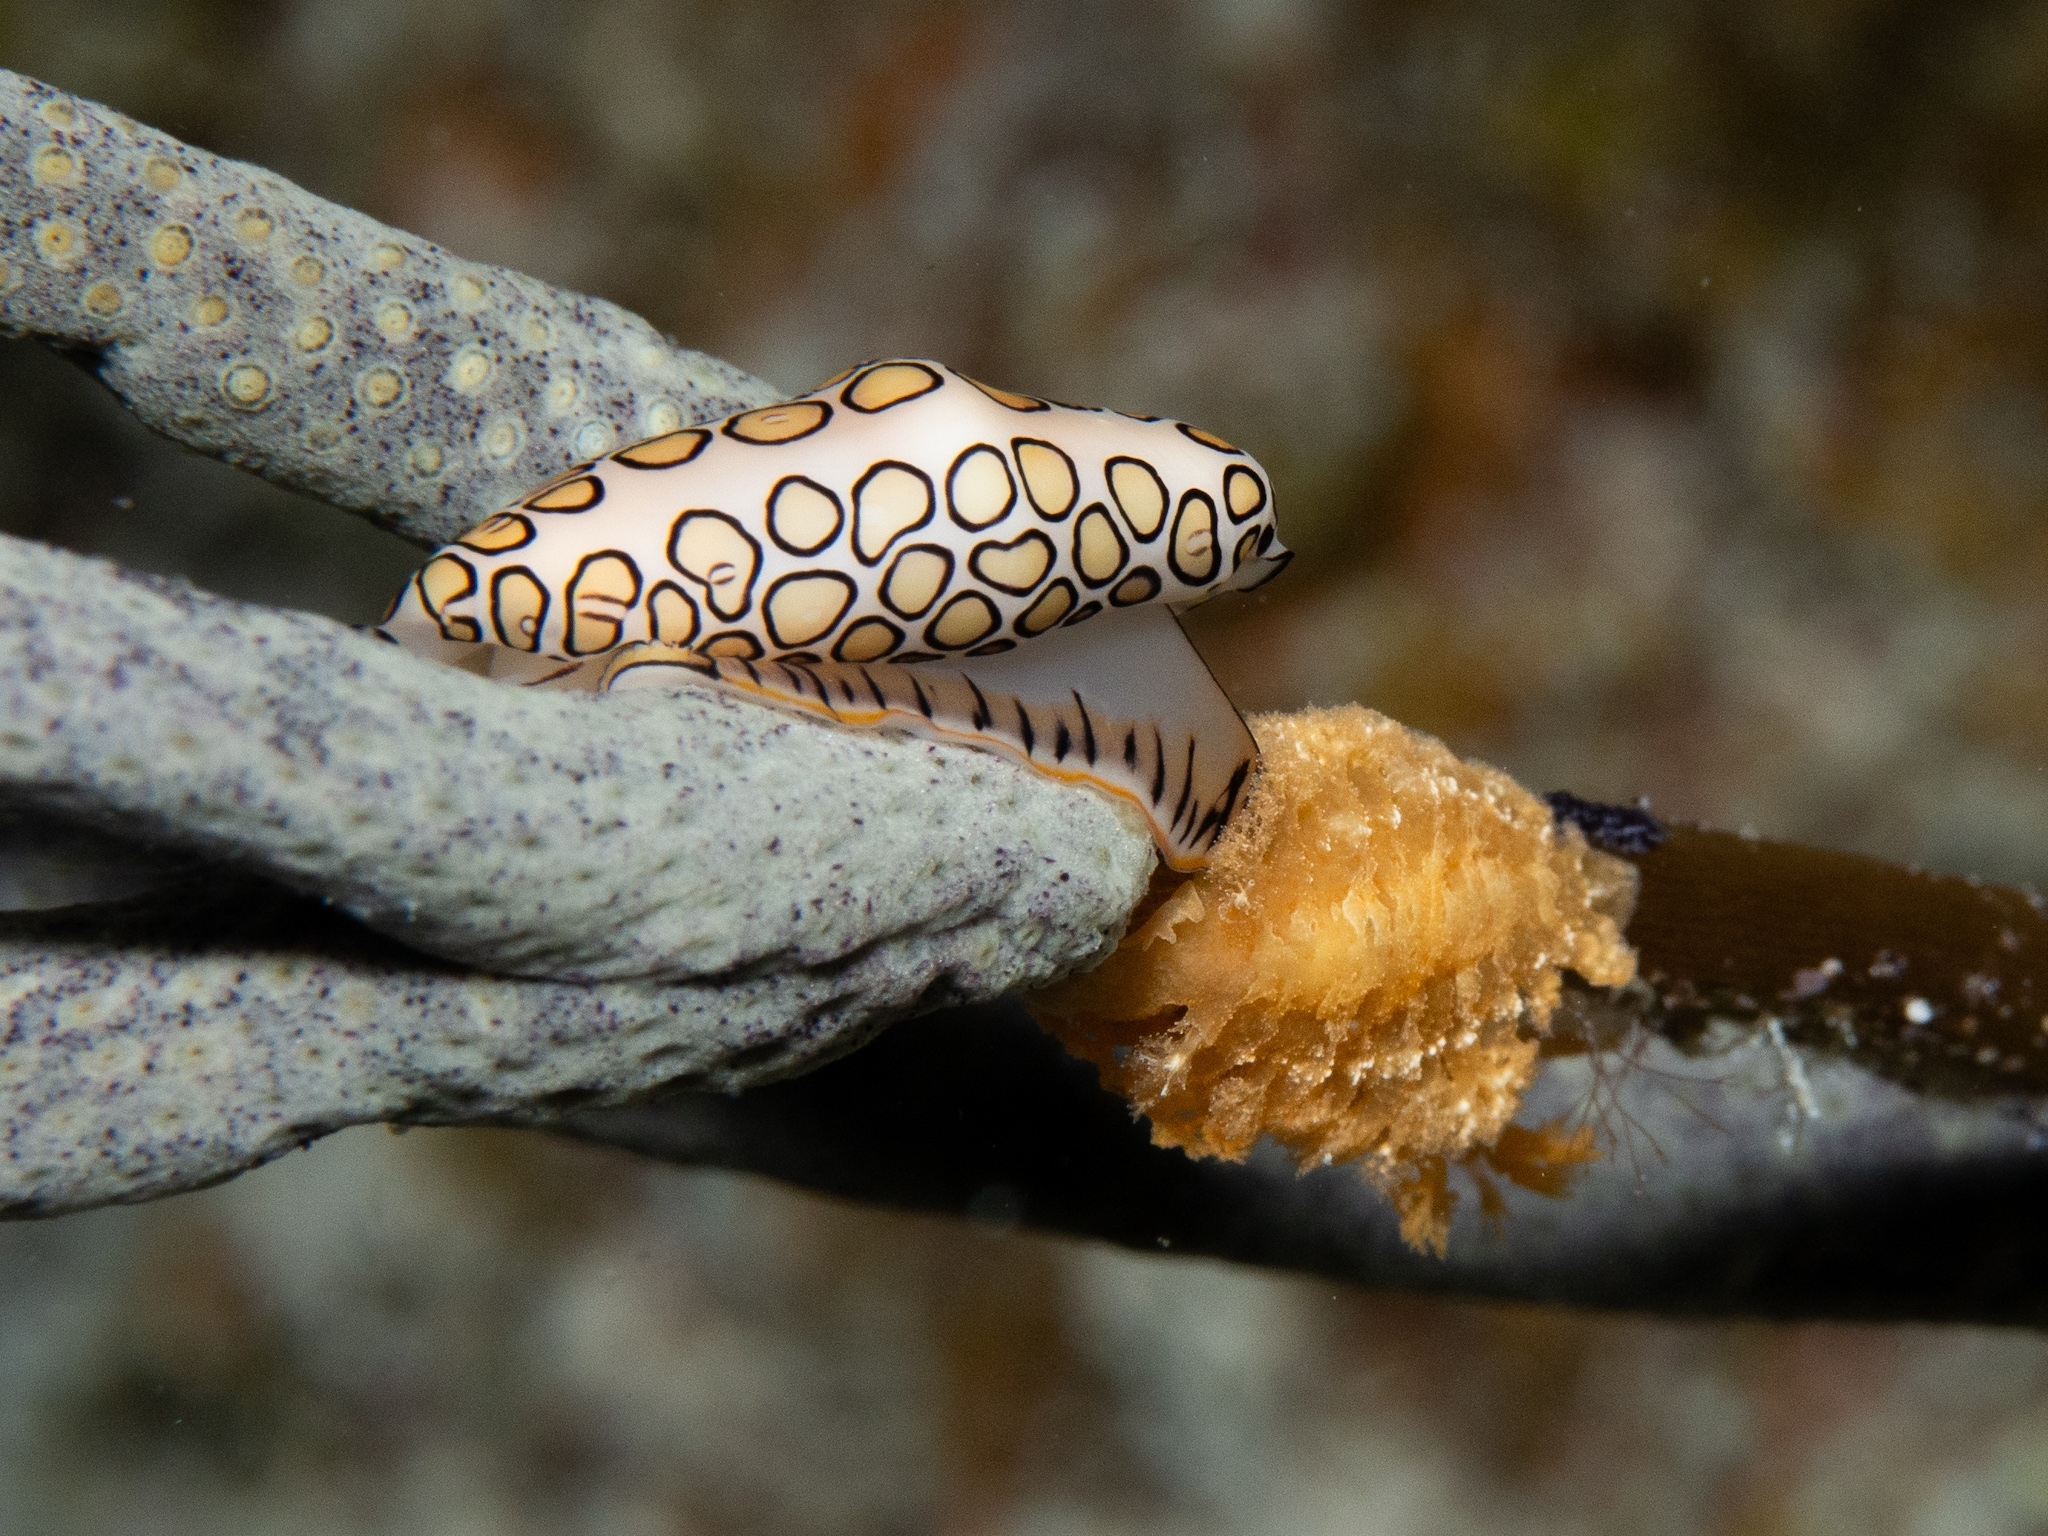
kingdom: Animalia
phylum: Mollusca
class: Gastropoda
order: Littorinimorpha
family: Ovulidae
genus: Cyphoma
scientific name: Cyphoma gibbosum
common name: Flamingo tongue
